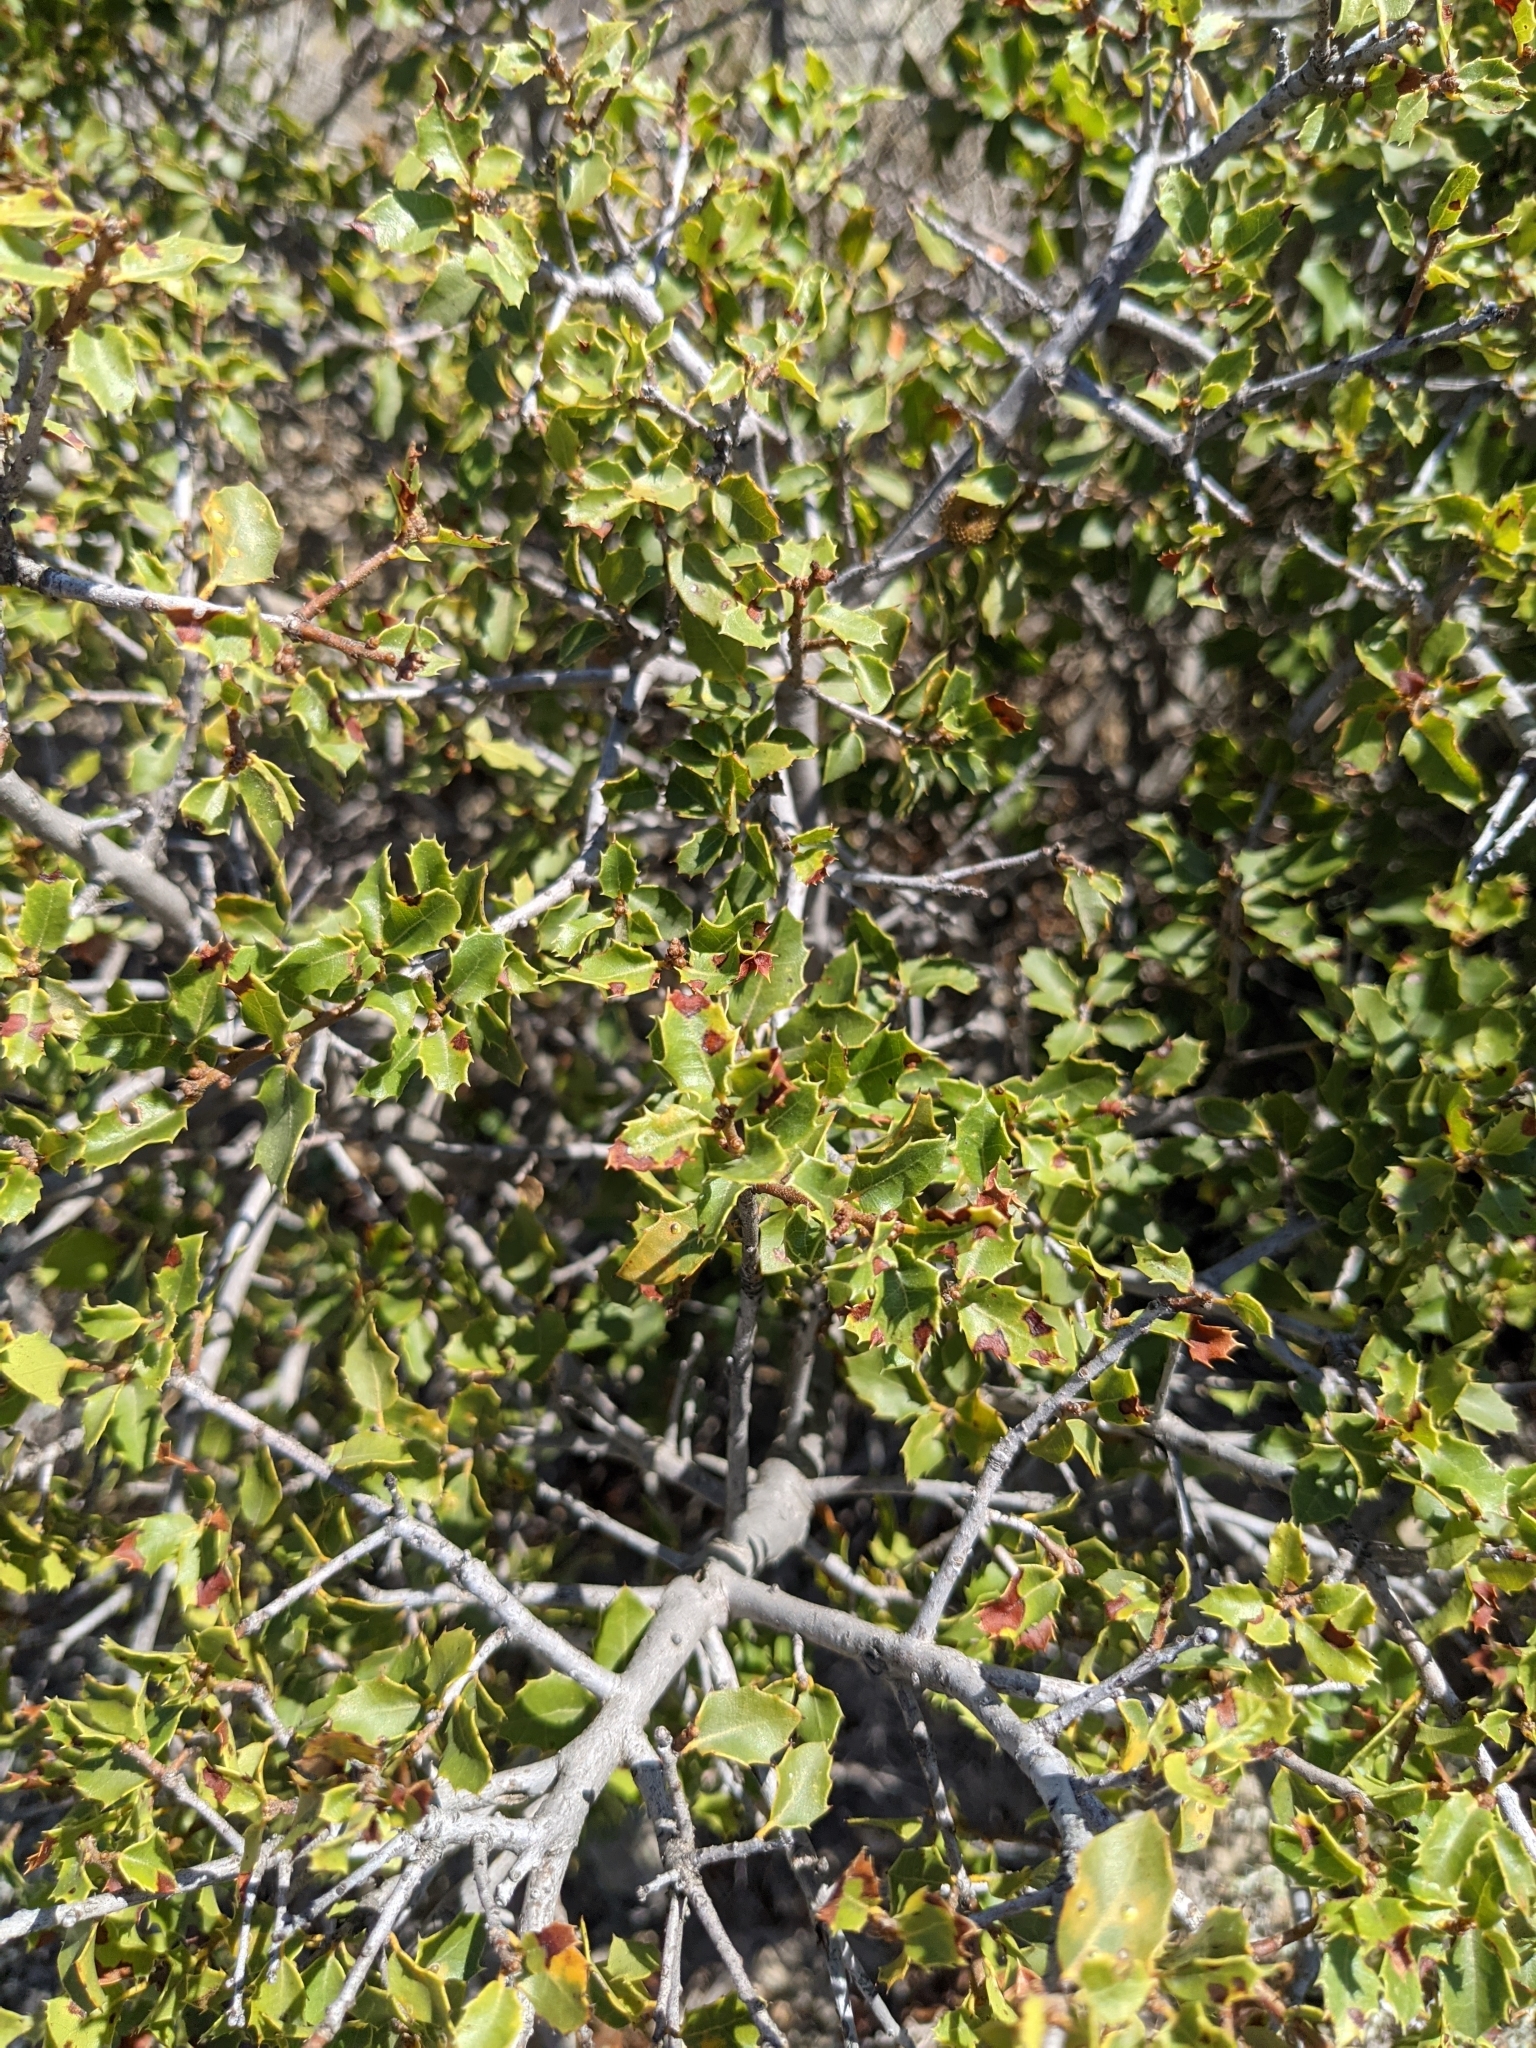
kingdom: Plantae
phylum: Tracheophyta
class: Magnoliopsida
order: Fagales
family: Fagaceae
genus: Quercus
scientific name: Quercus coccifera
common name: Kermes oak
